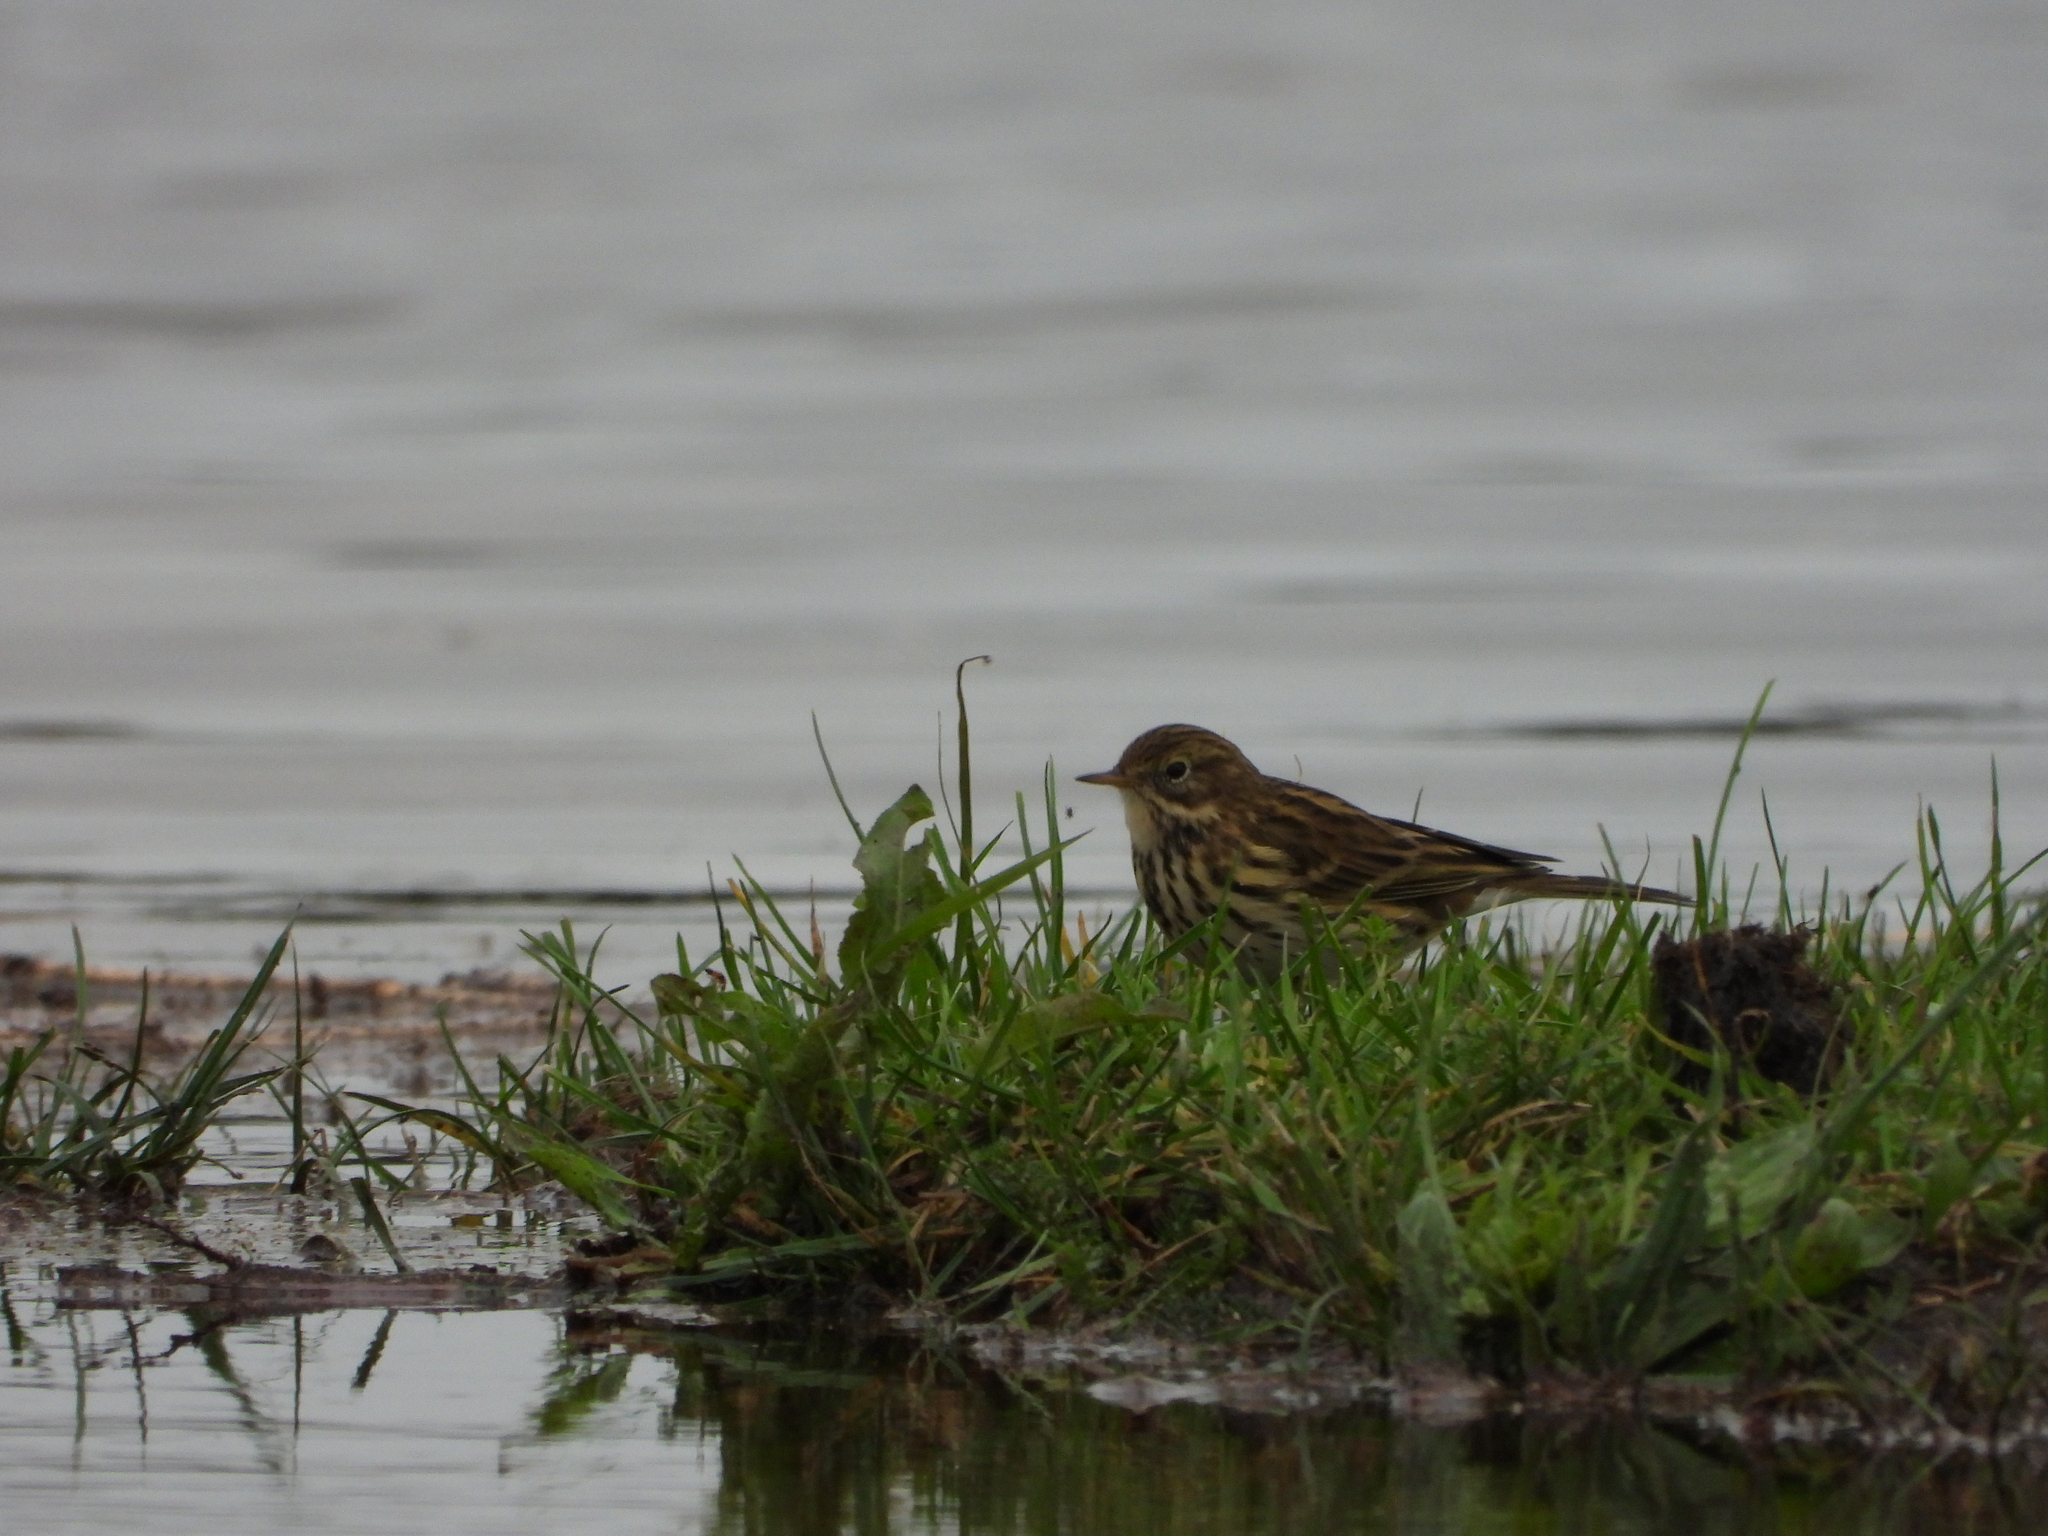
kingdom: Animalia
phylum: Chordata
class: Aves
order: Passeriformes
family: Motacillidae
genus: Anthus
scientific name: Anthus pratensis
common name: Meadow pipit
